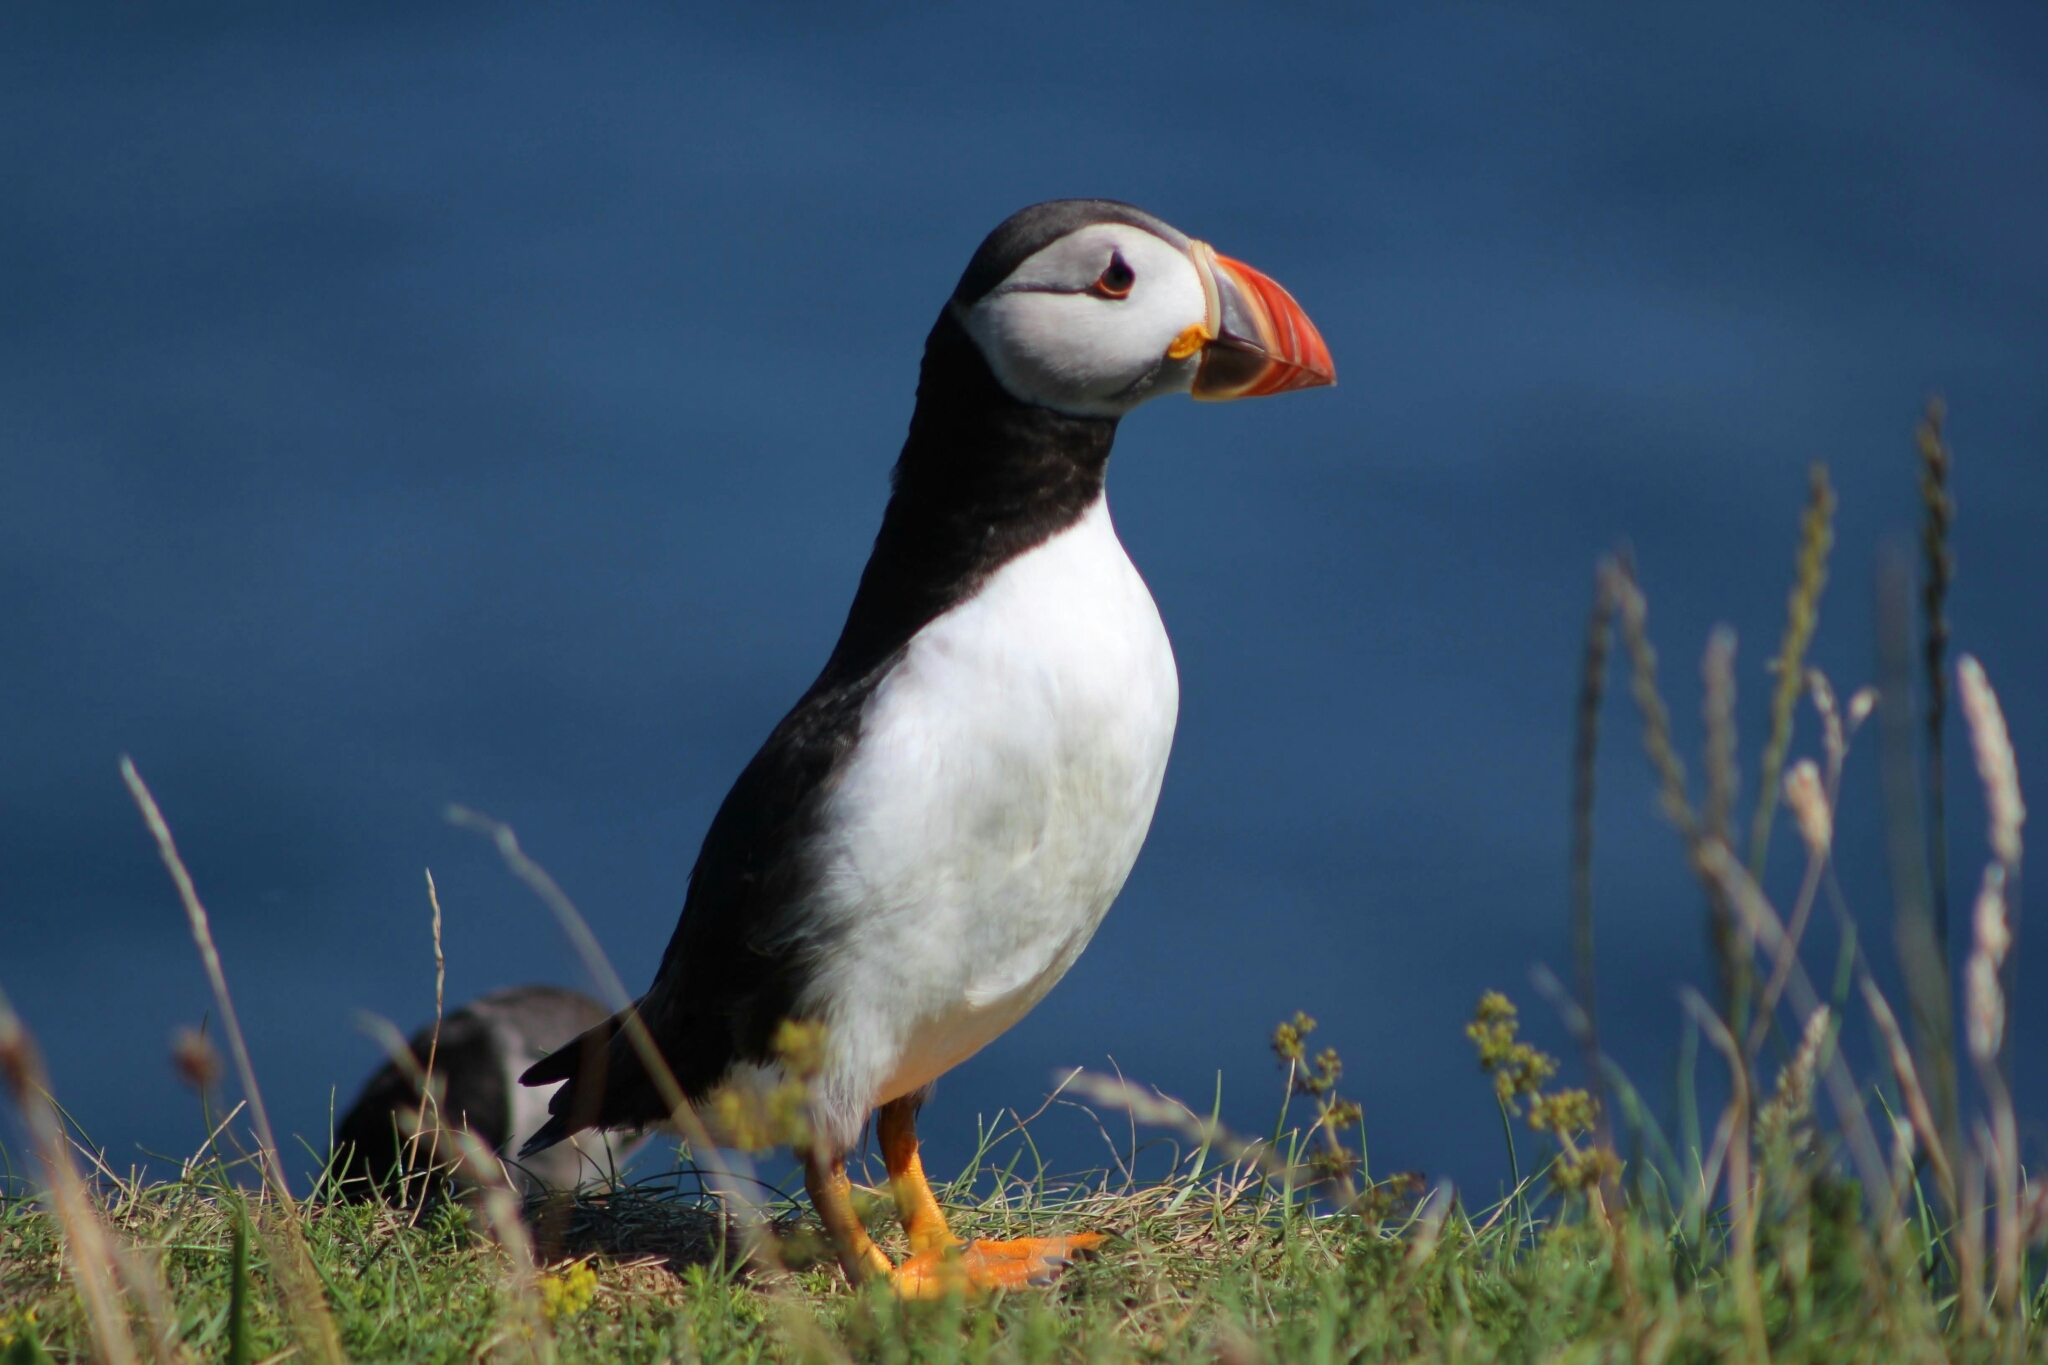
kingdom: Animalia
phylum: Chordata
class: Aves
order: Charadriiformes
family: Alcidae
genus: Fratercula
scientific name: Fratercula arctica
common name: Atlantic puffin
